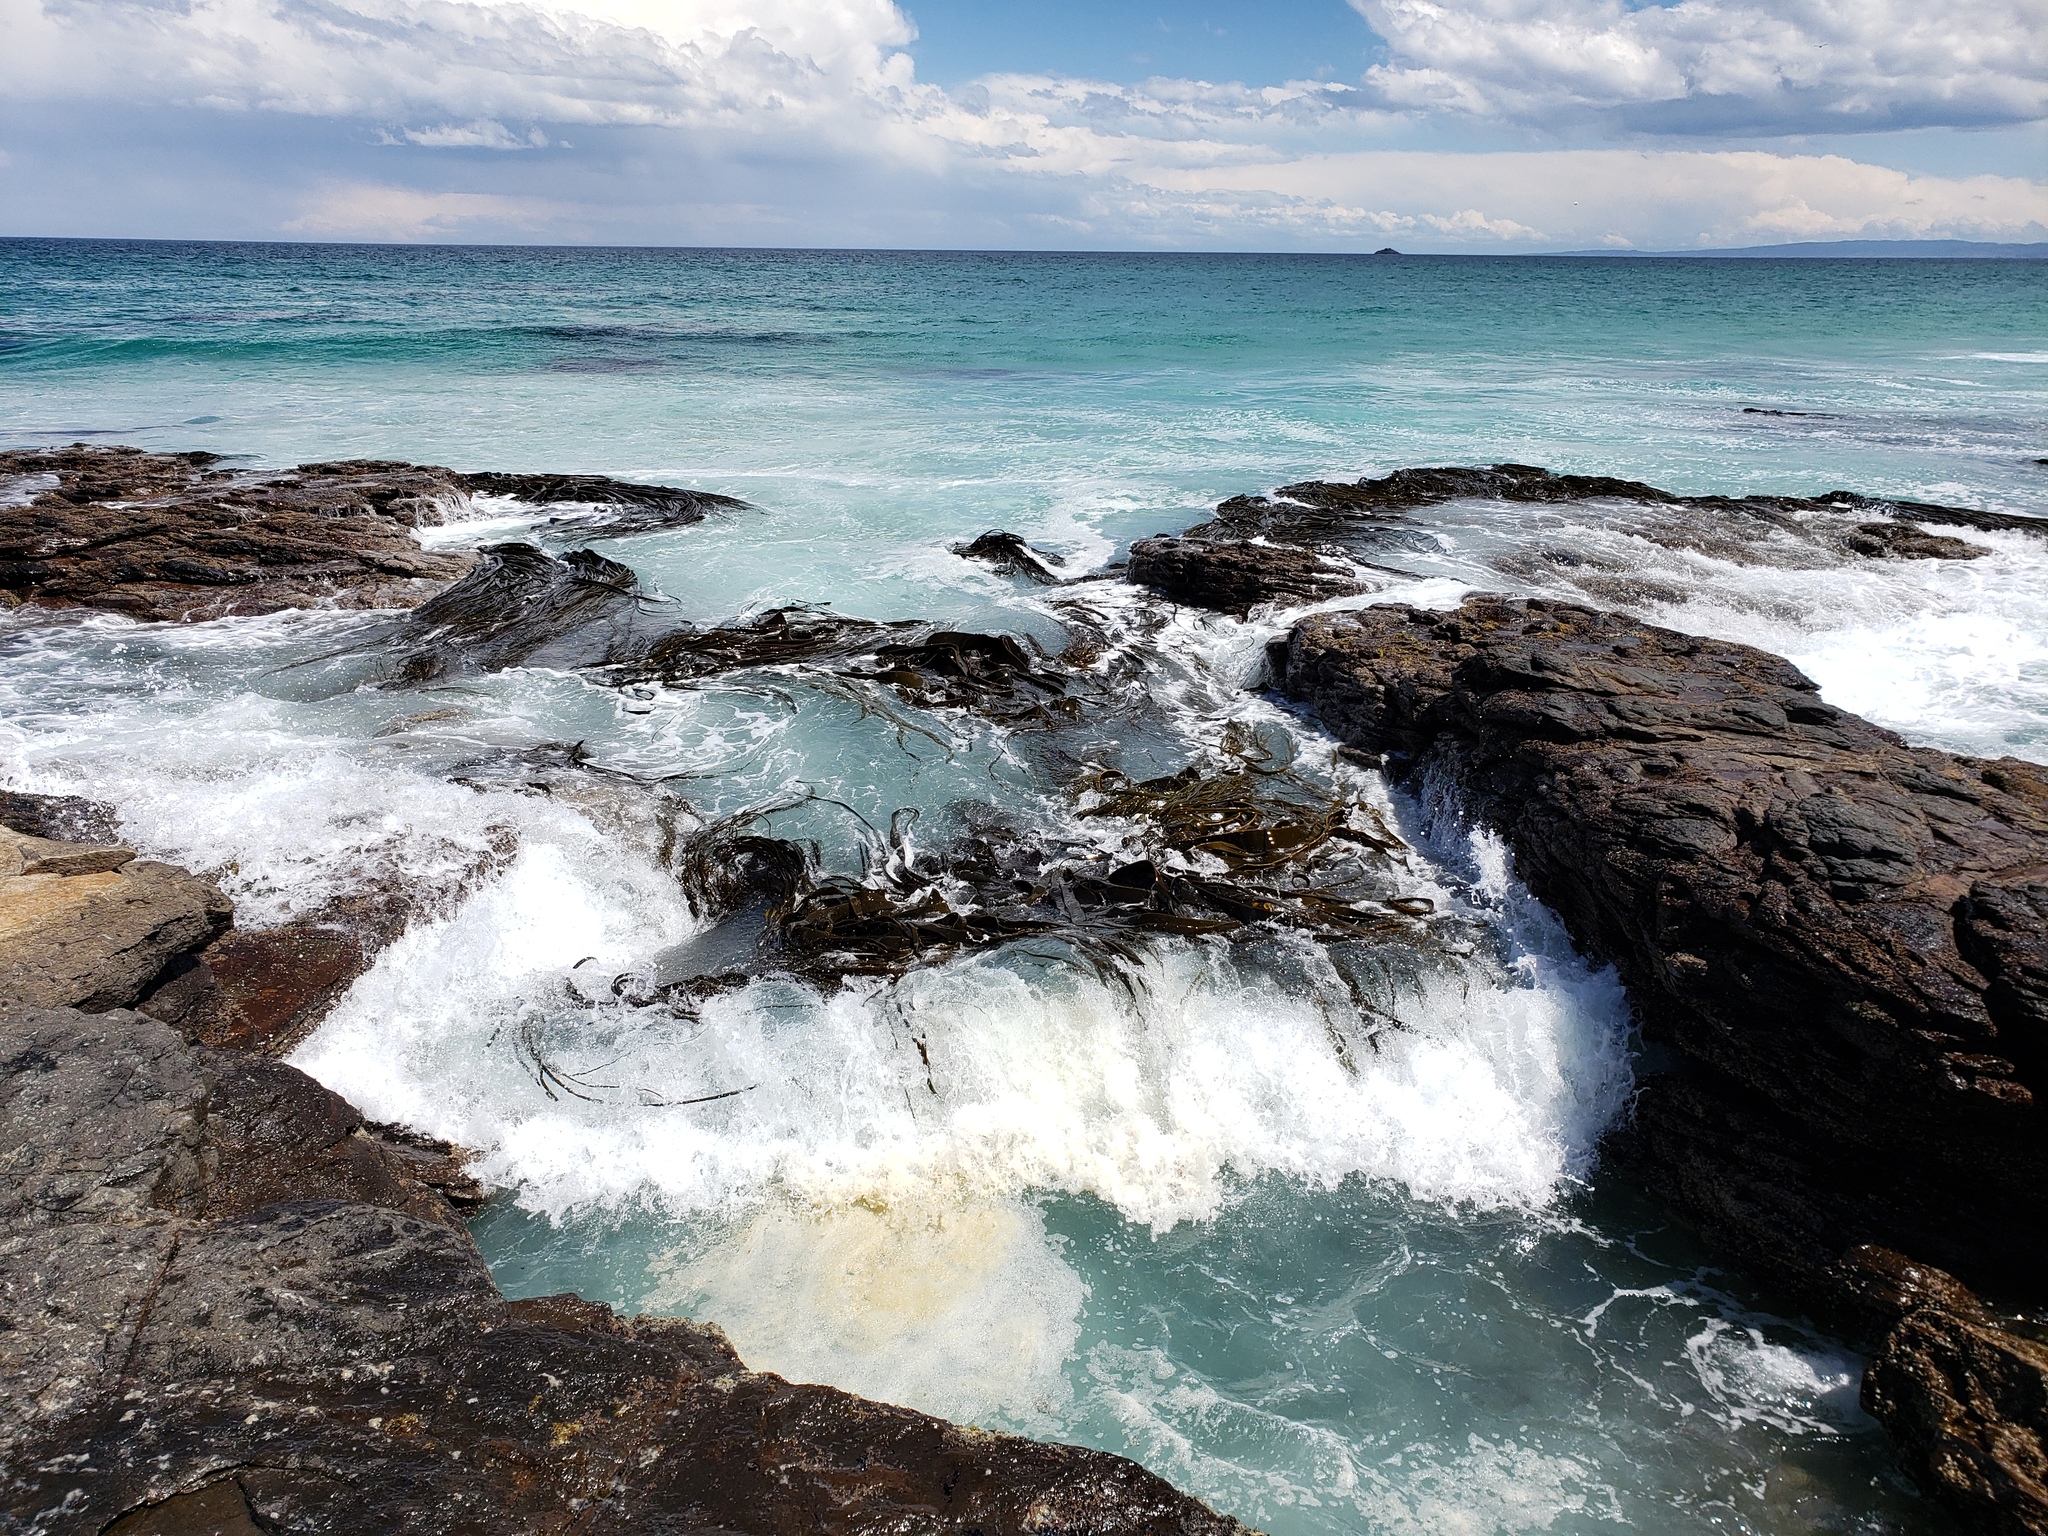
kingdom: Chromista
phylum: Ochrophyta
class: Phaeophyceae
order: Fucales
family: Durvillaeaceae
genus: Durvillaea
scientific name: Durvillaea antarctica
